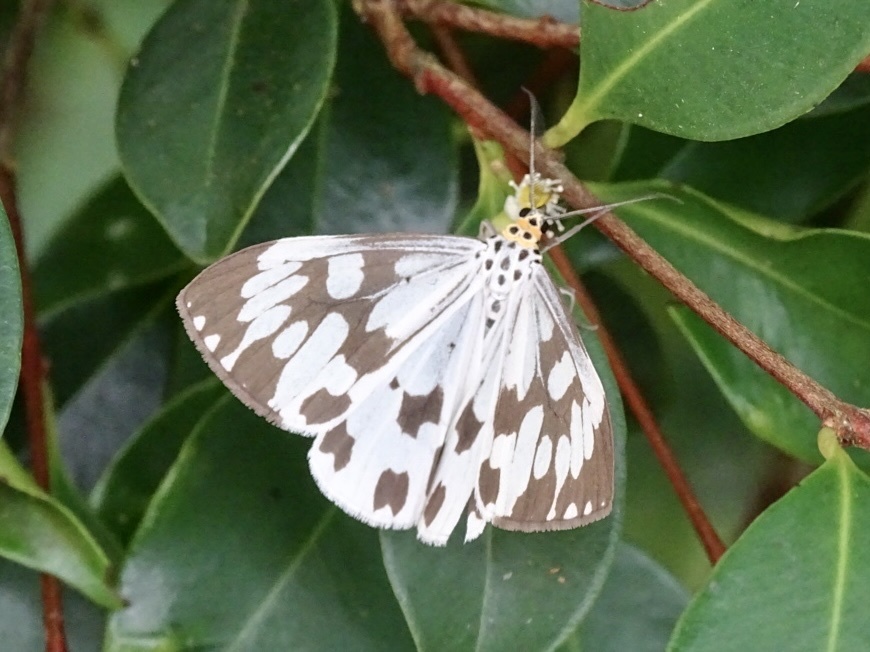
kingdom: Animalia
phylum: Arthropoda
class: Insecta
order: Lepidoptera
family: Erebidae
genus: Nyctemera
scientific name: Nyctemera adversata
